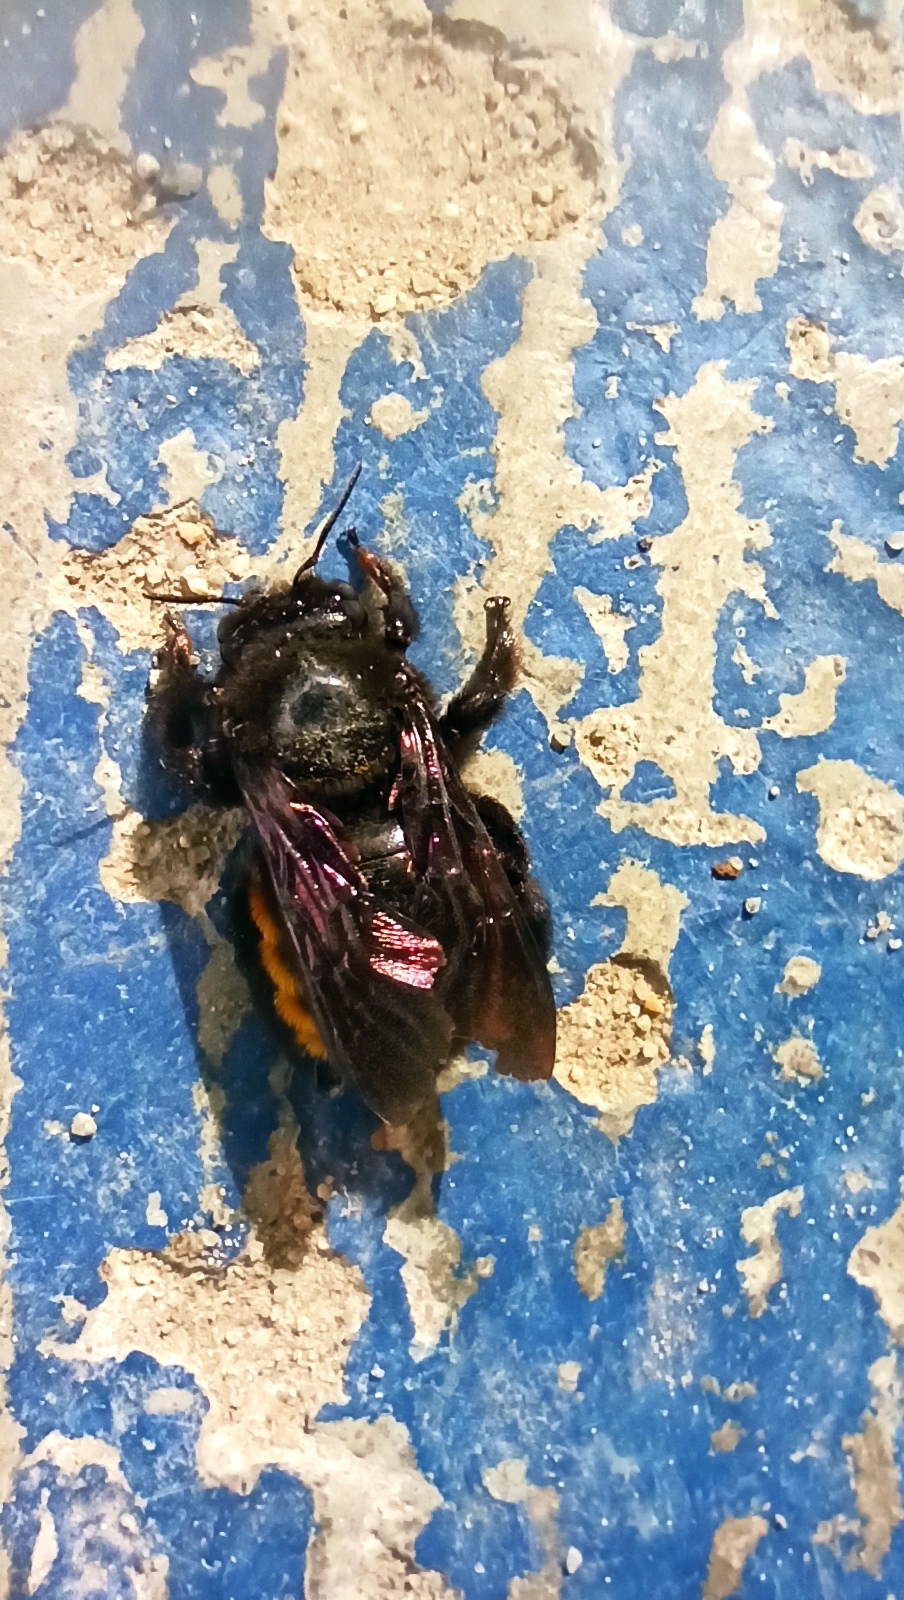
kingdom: Animalia
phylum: Arthropoda
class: Insecta
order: Hymenoptera
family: Apidae
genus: Xylocopa
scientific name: Xylocopa augusti
